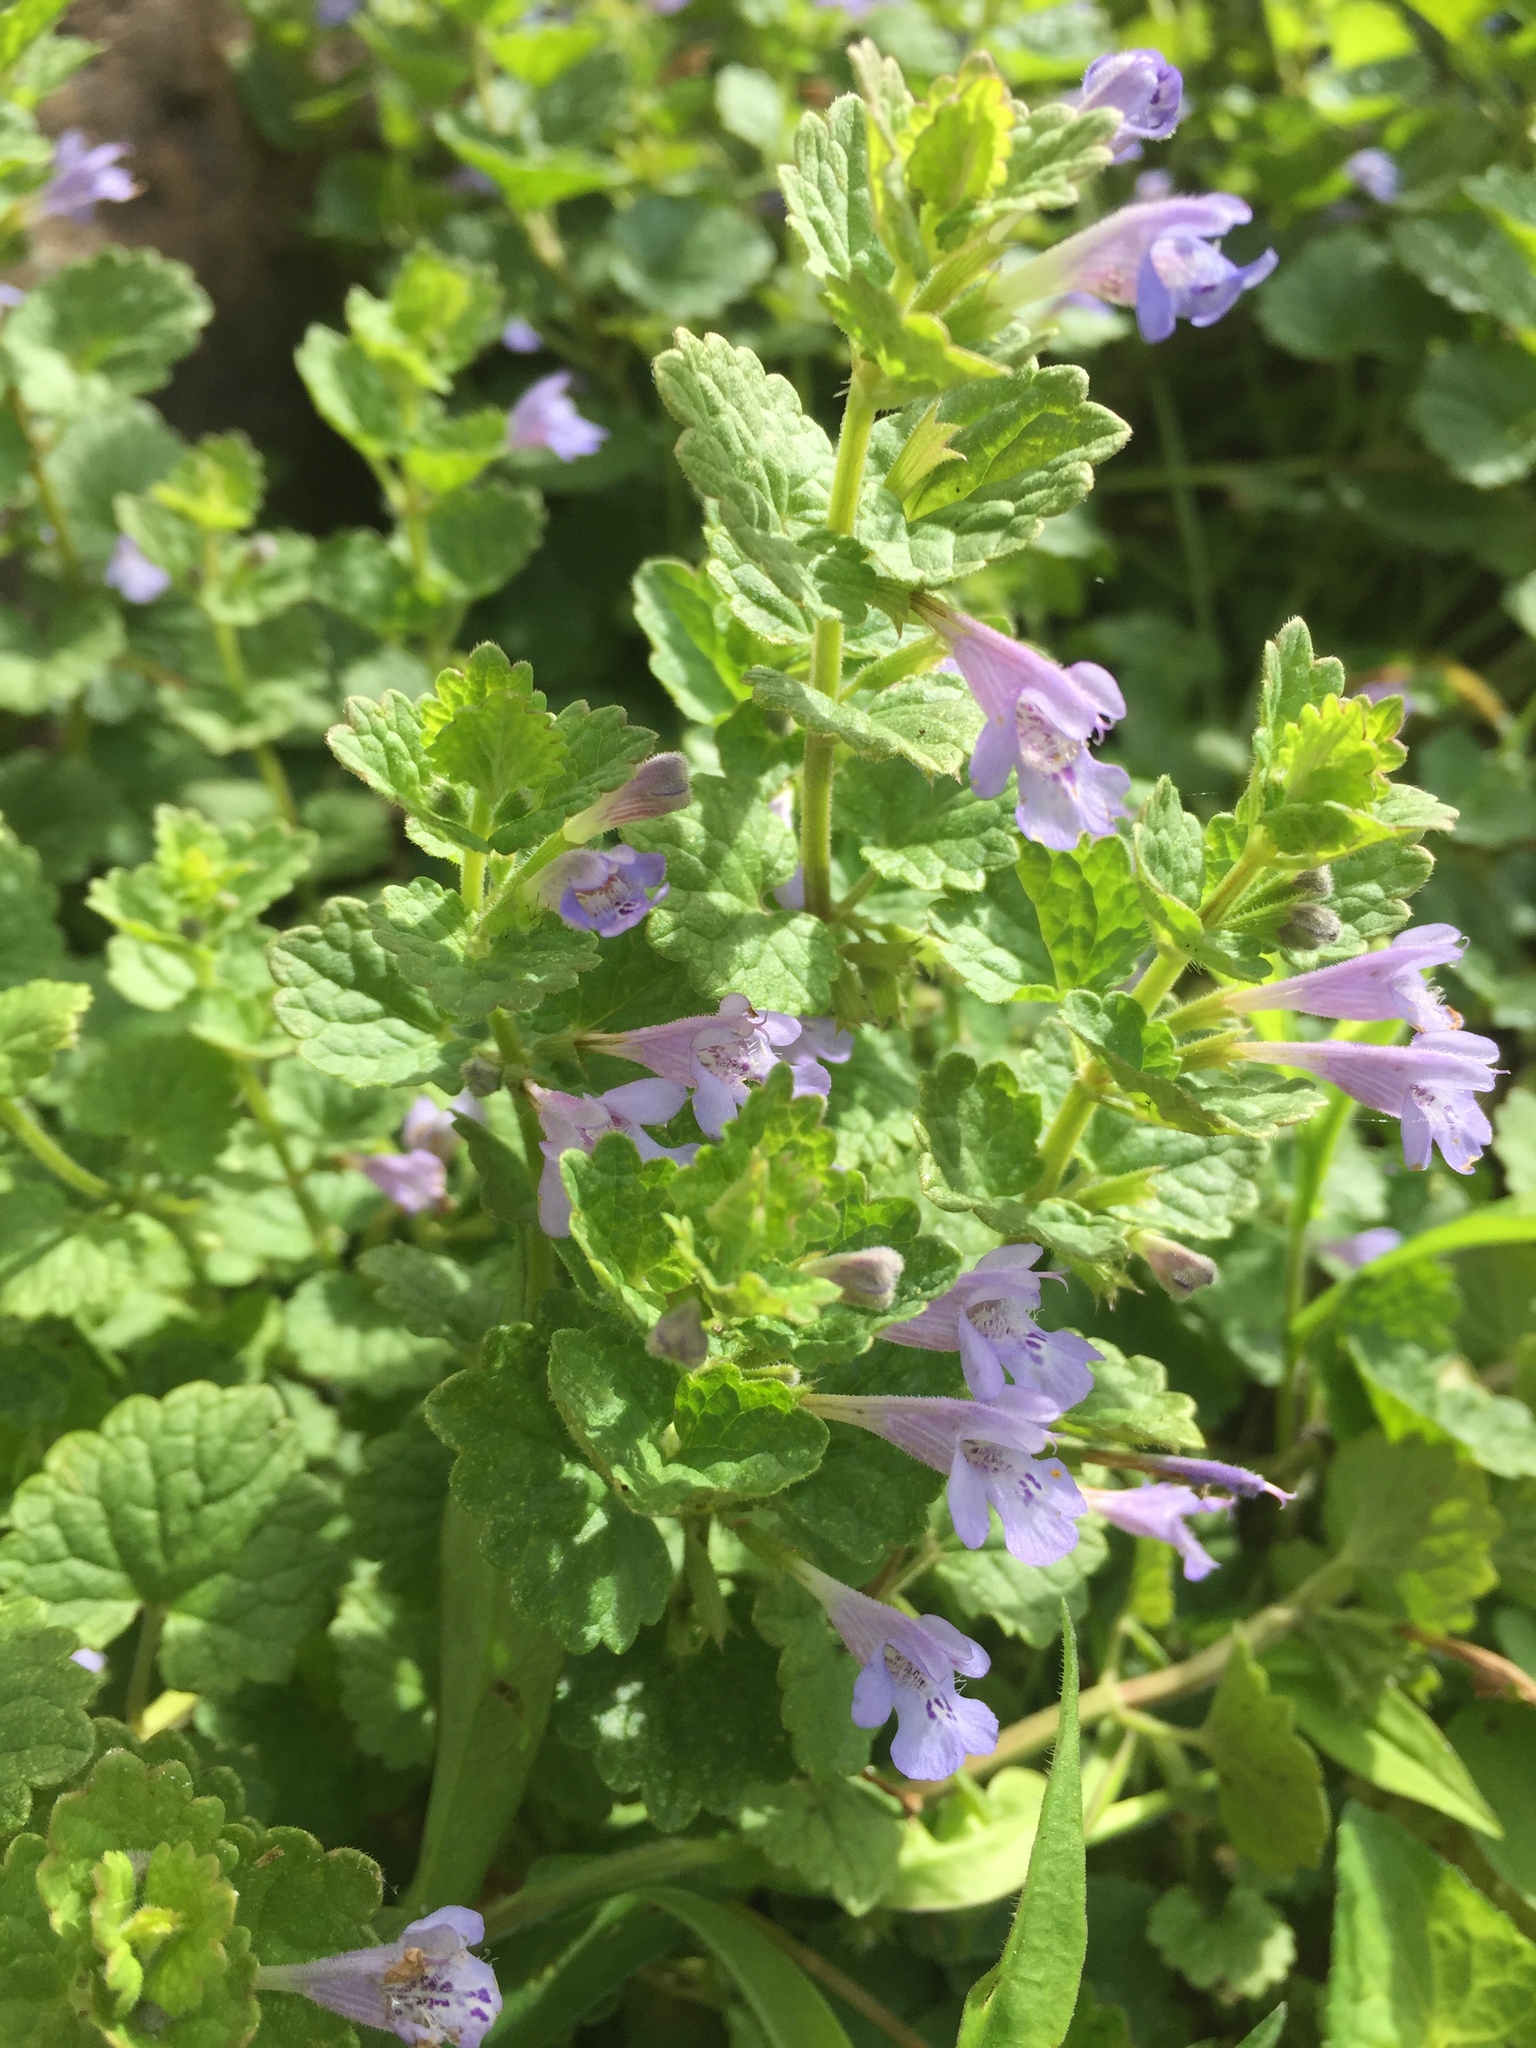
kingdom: Plantae
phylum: Tracheophyta
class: Magnoliopsida
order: Lamiales
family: Lamiaceae
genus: Glechoma
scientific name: Glechoma hederacea
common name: Ground ivy
